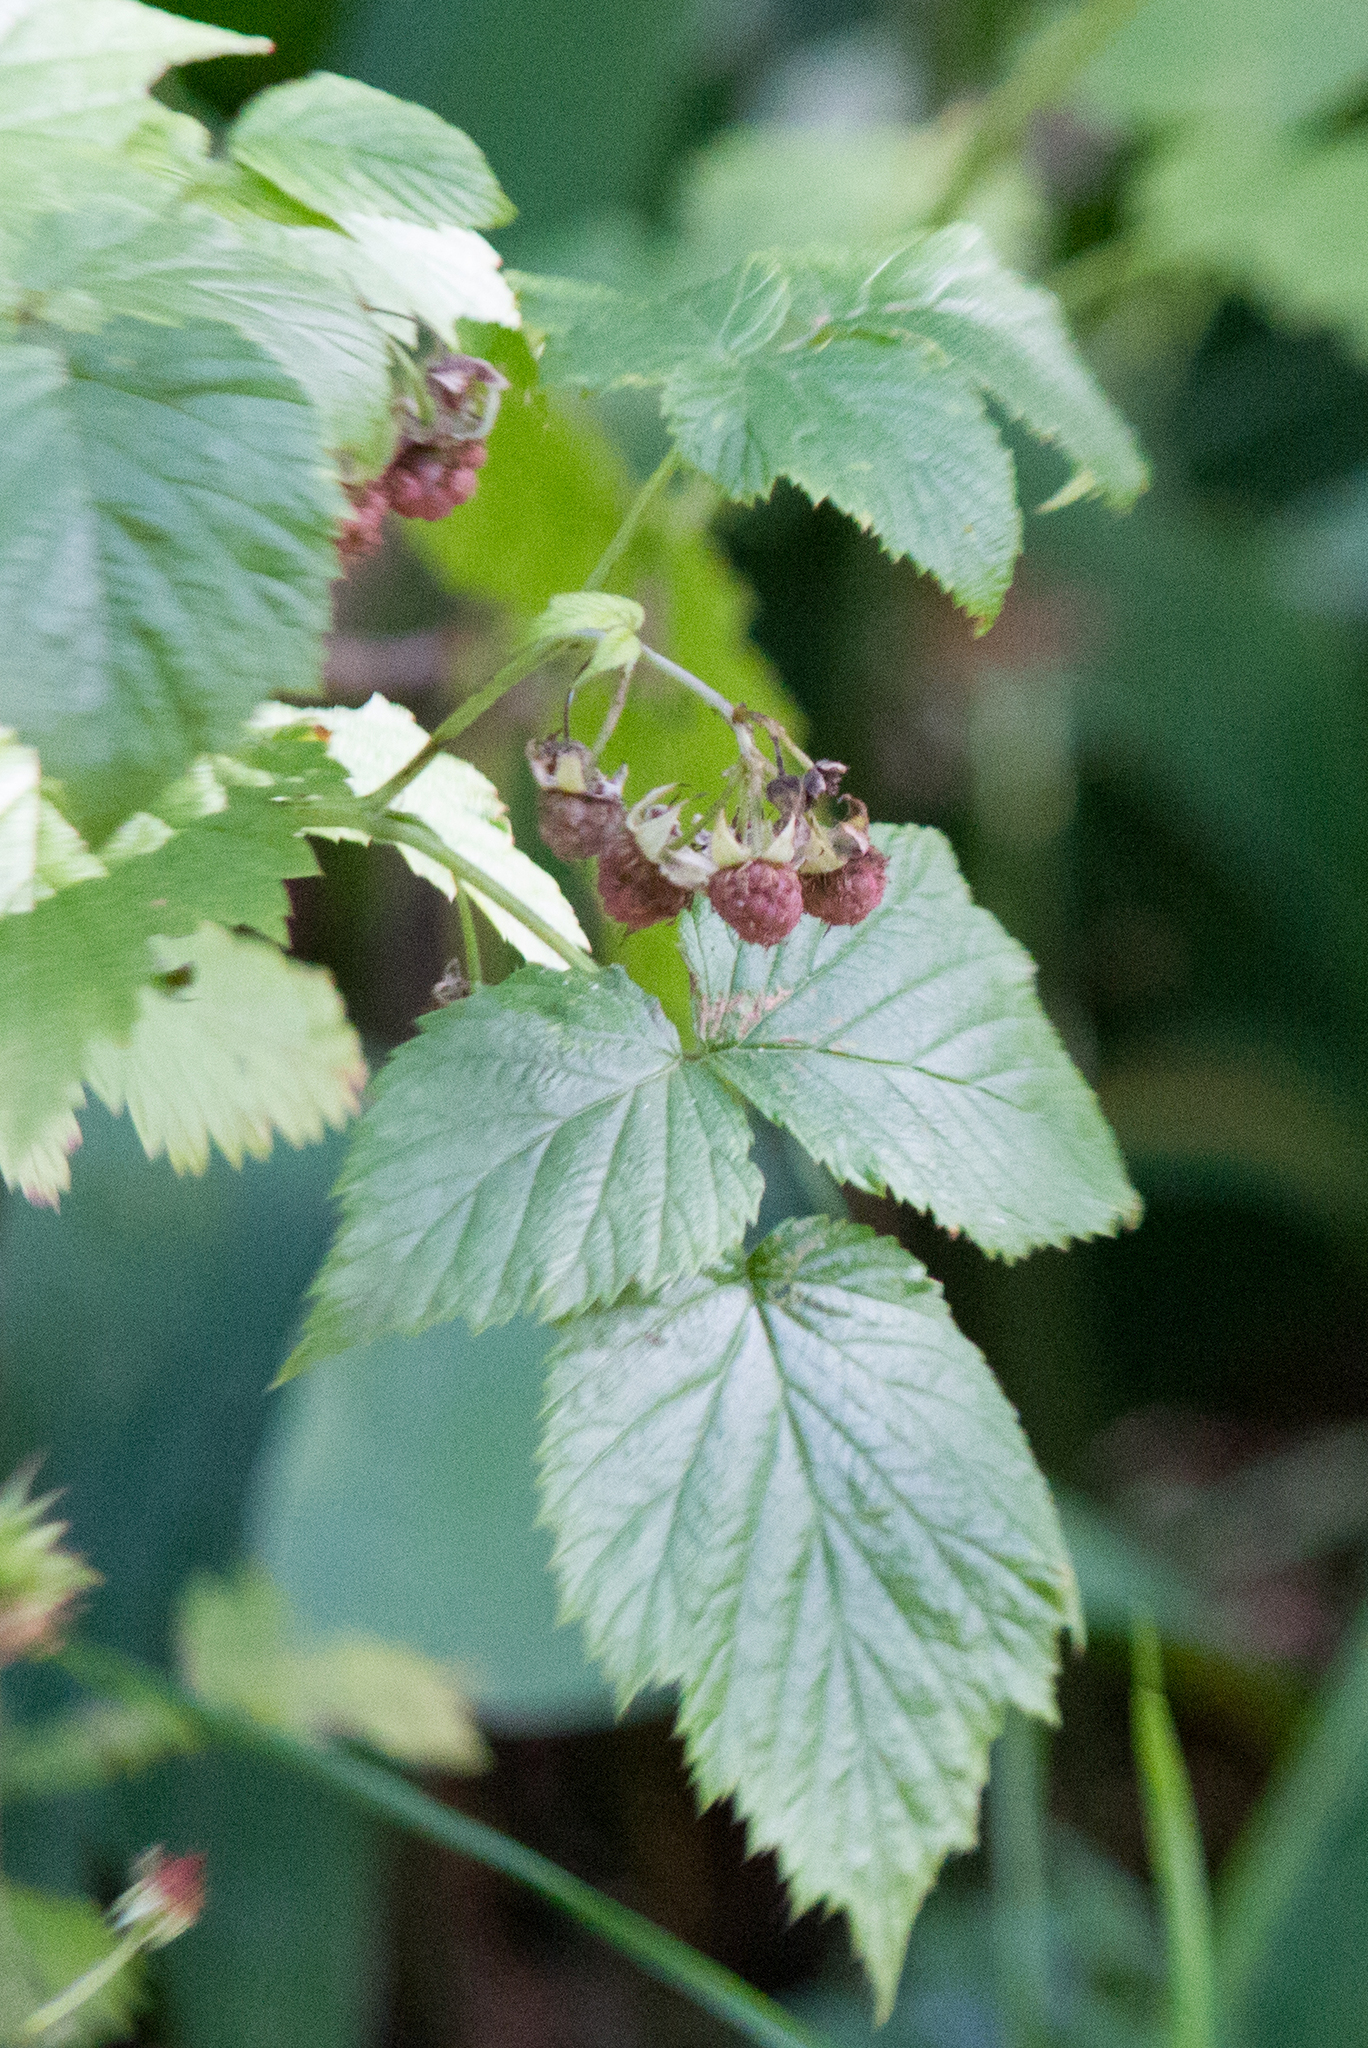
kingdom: Plantae
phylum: Tracheophyta
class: Magnoliopsida
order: Rosales
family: Rosaceae
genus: Rubus
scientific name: Rubus idaeus
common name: Raspberry
